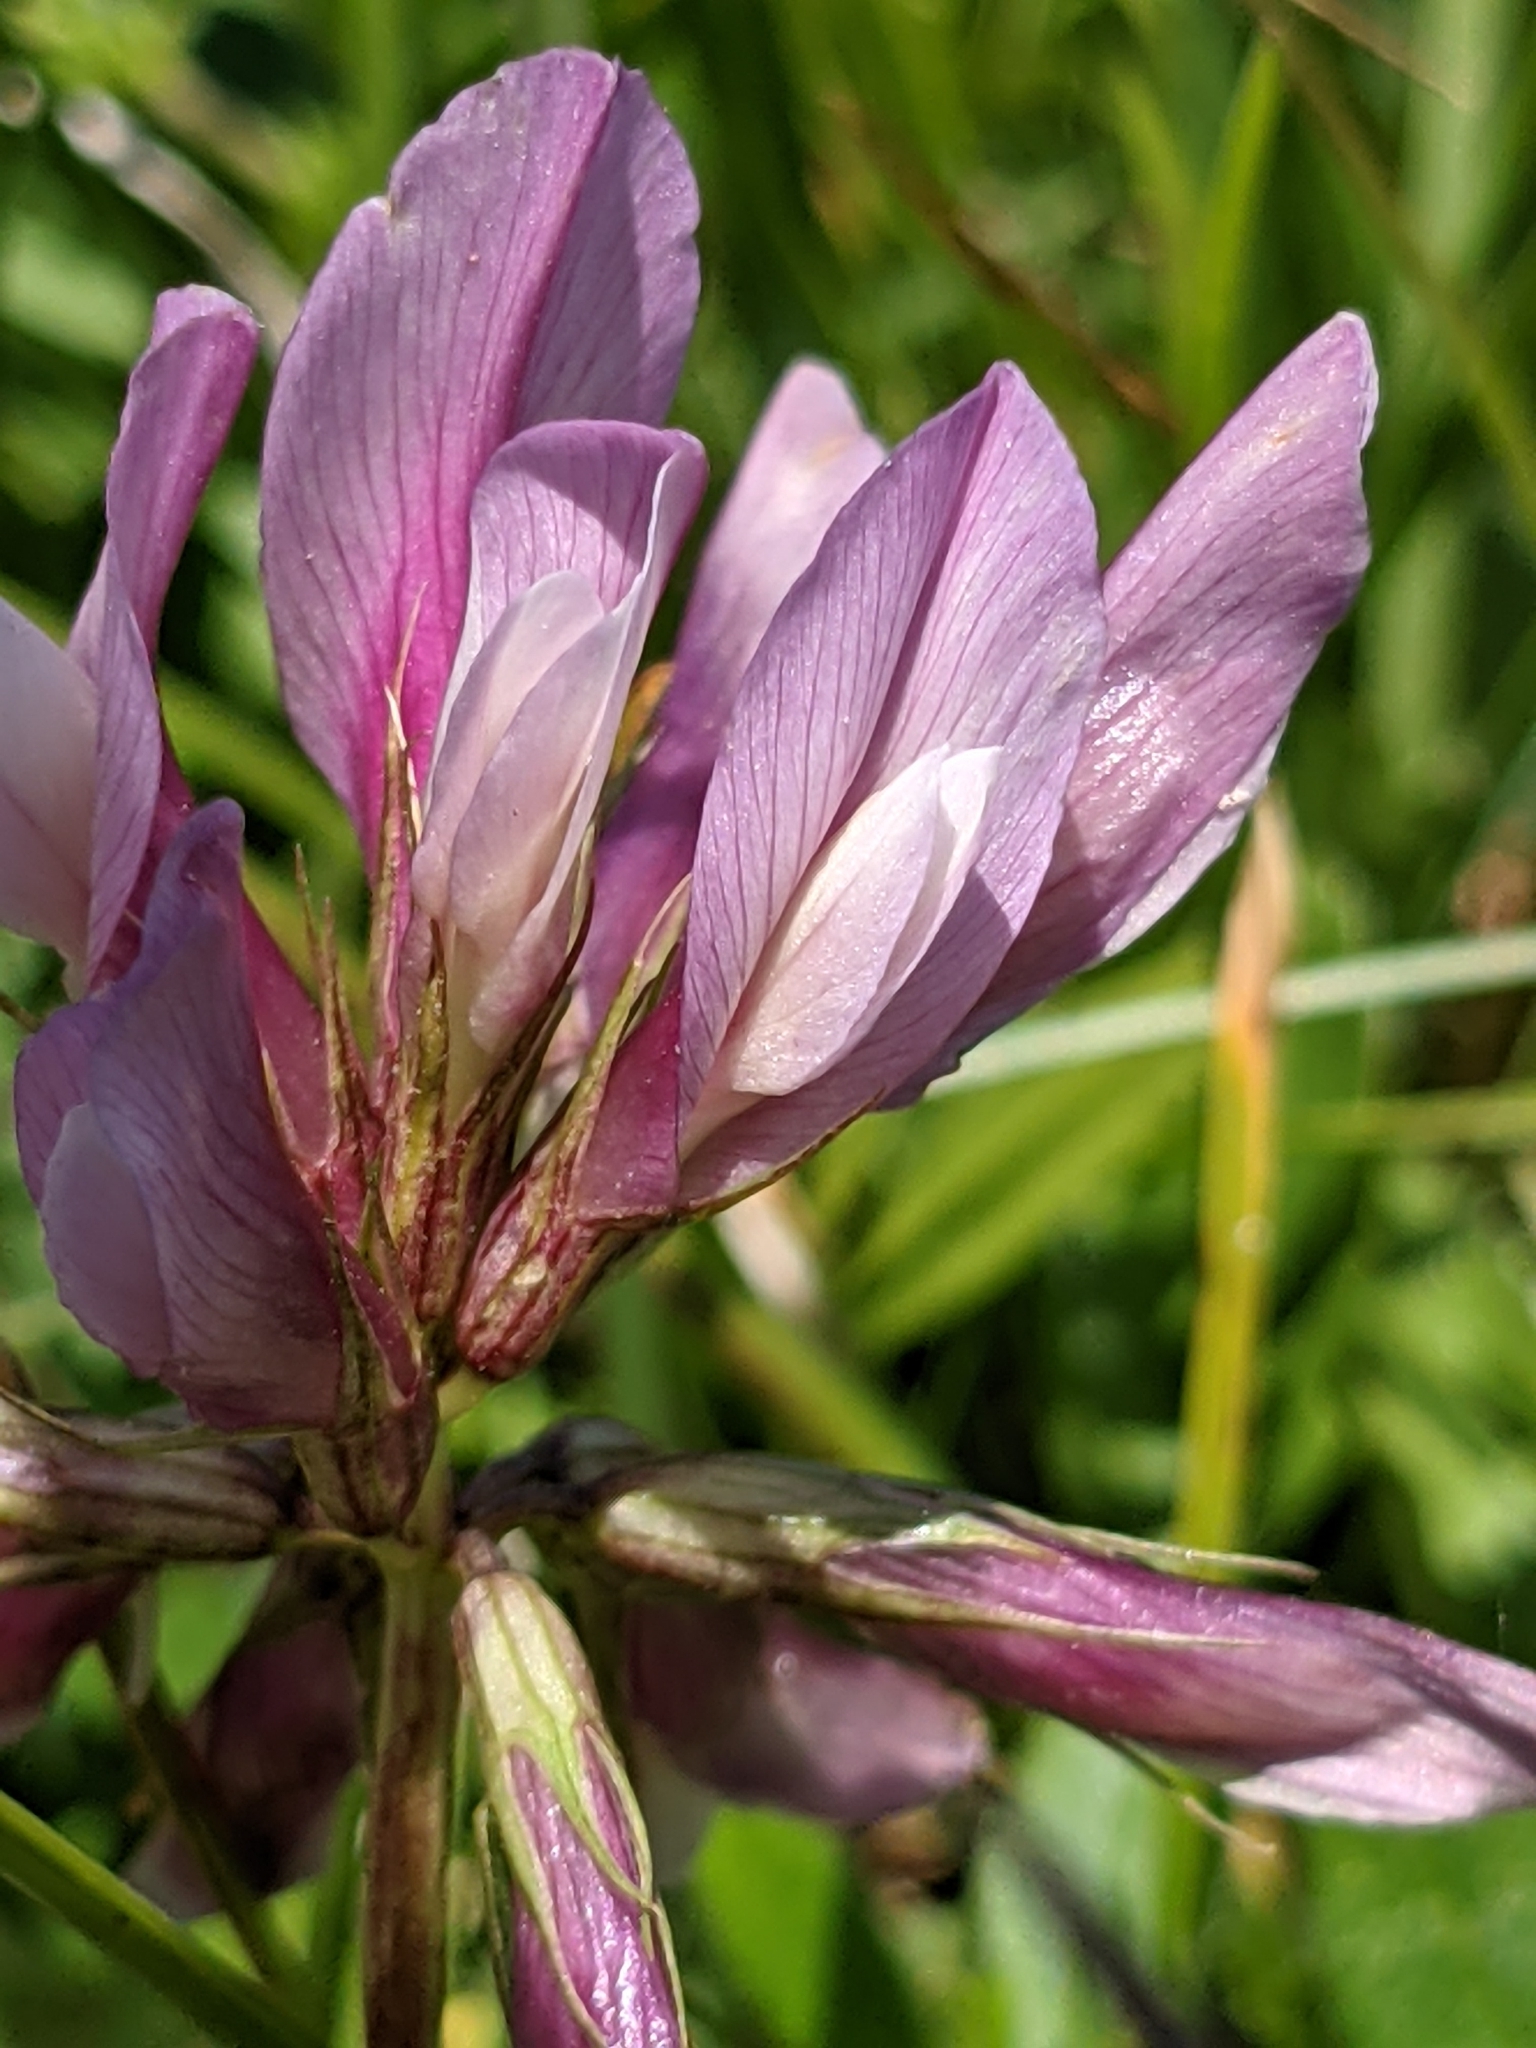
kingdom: Plantae
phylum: Tracheophyta
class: Magnoliopsida
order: Fabales
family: Fabaceae
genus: Trifolium
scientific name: Trifolium alpinum
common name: Alpine clover
